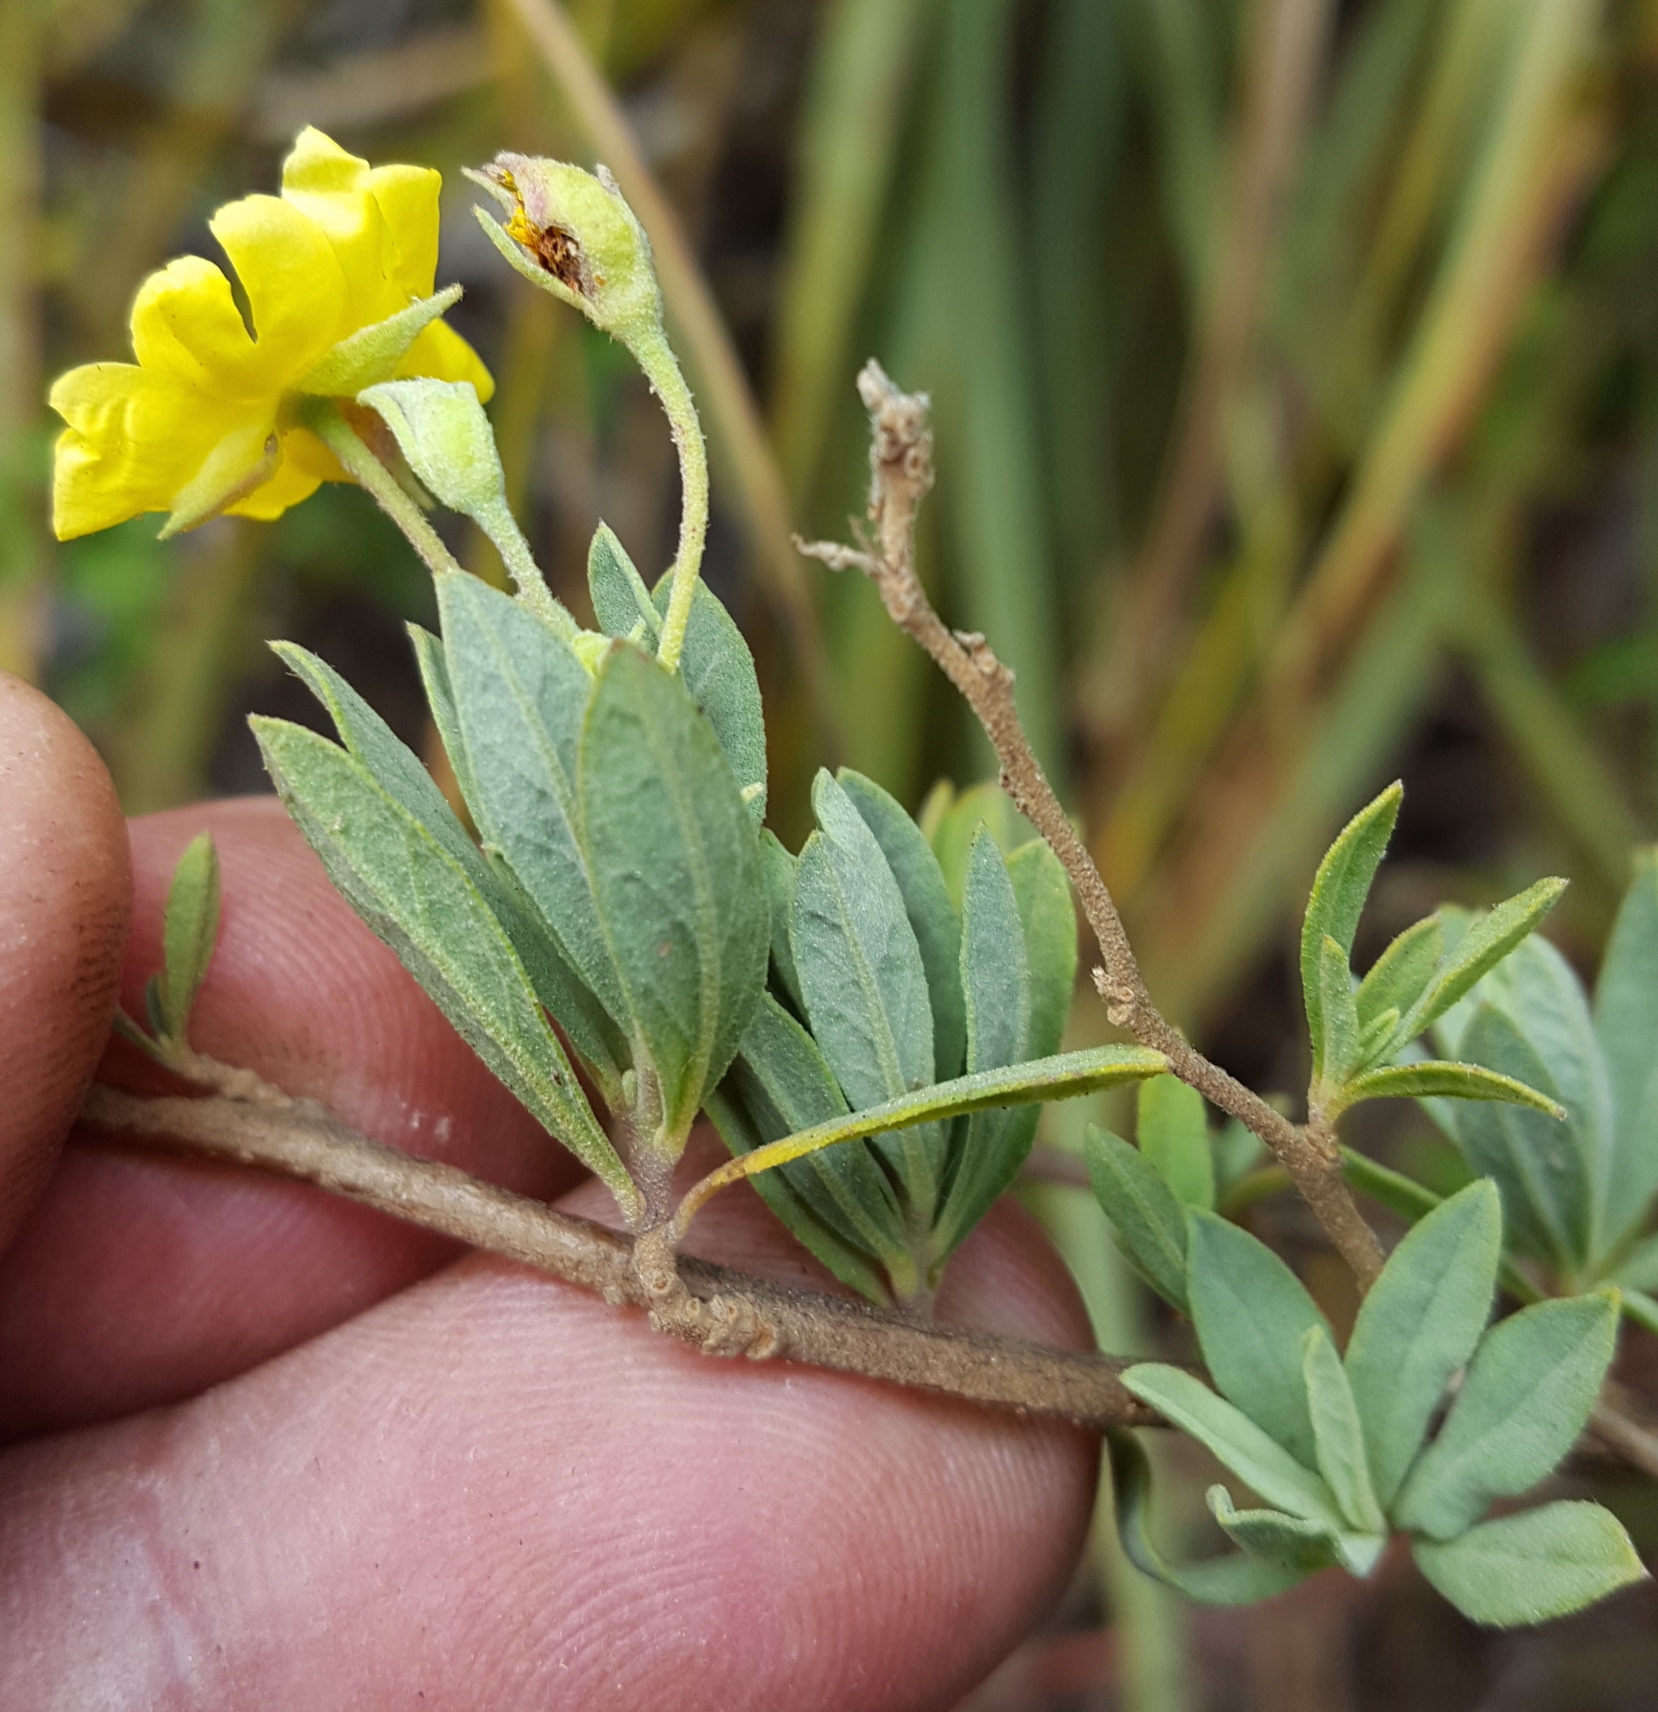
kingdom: Plantae
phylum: Tracheophyta
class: Magnoliopsida
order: Malvales
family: Cistaceae
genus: Crocanthemum
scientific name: Crocanthemum glomeratum
